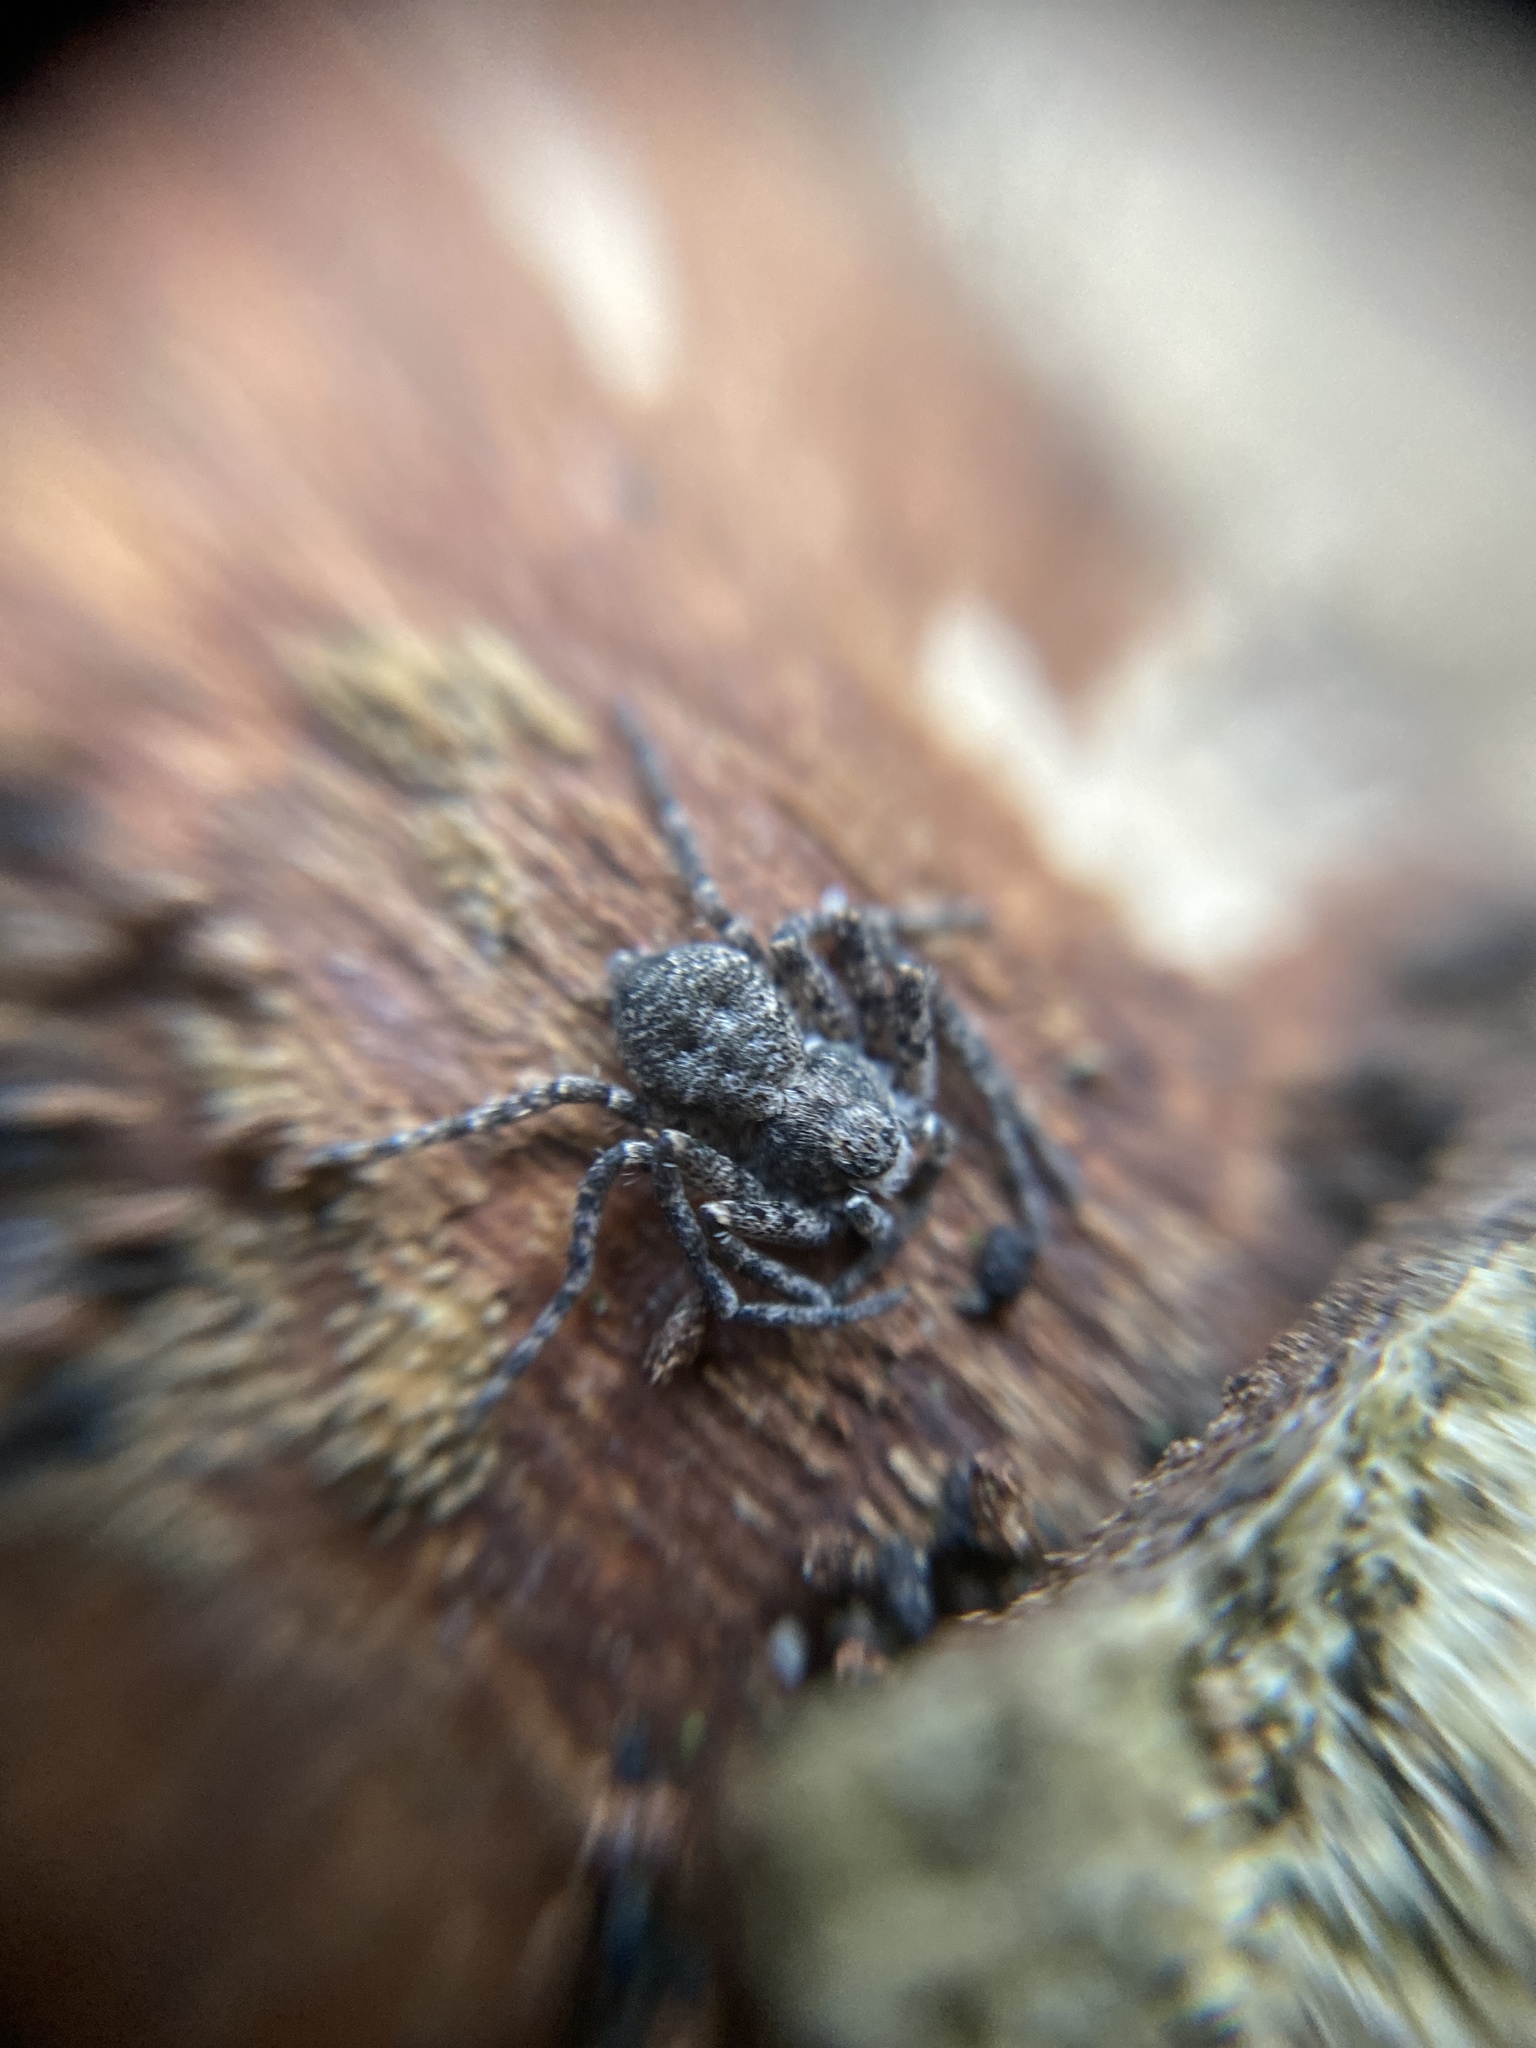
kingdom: Animalia
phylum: Arthropoda
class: Arachnida
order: Araneae
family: Philodromidae
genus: Philodromus
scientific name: Philodromus margaritatus
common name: Lichen running-spider
